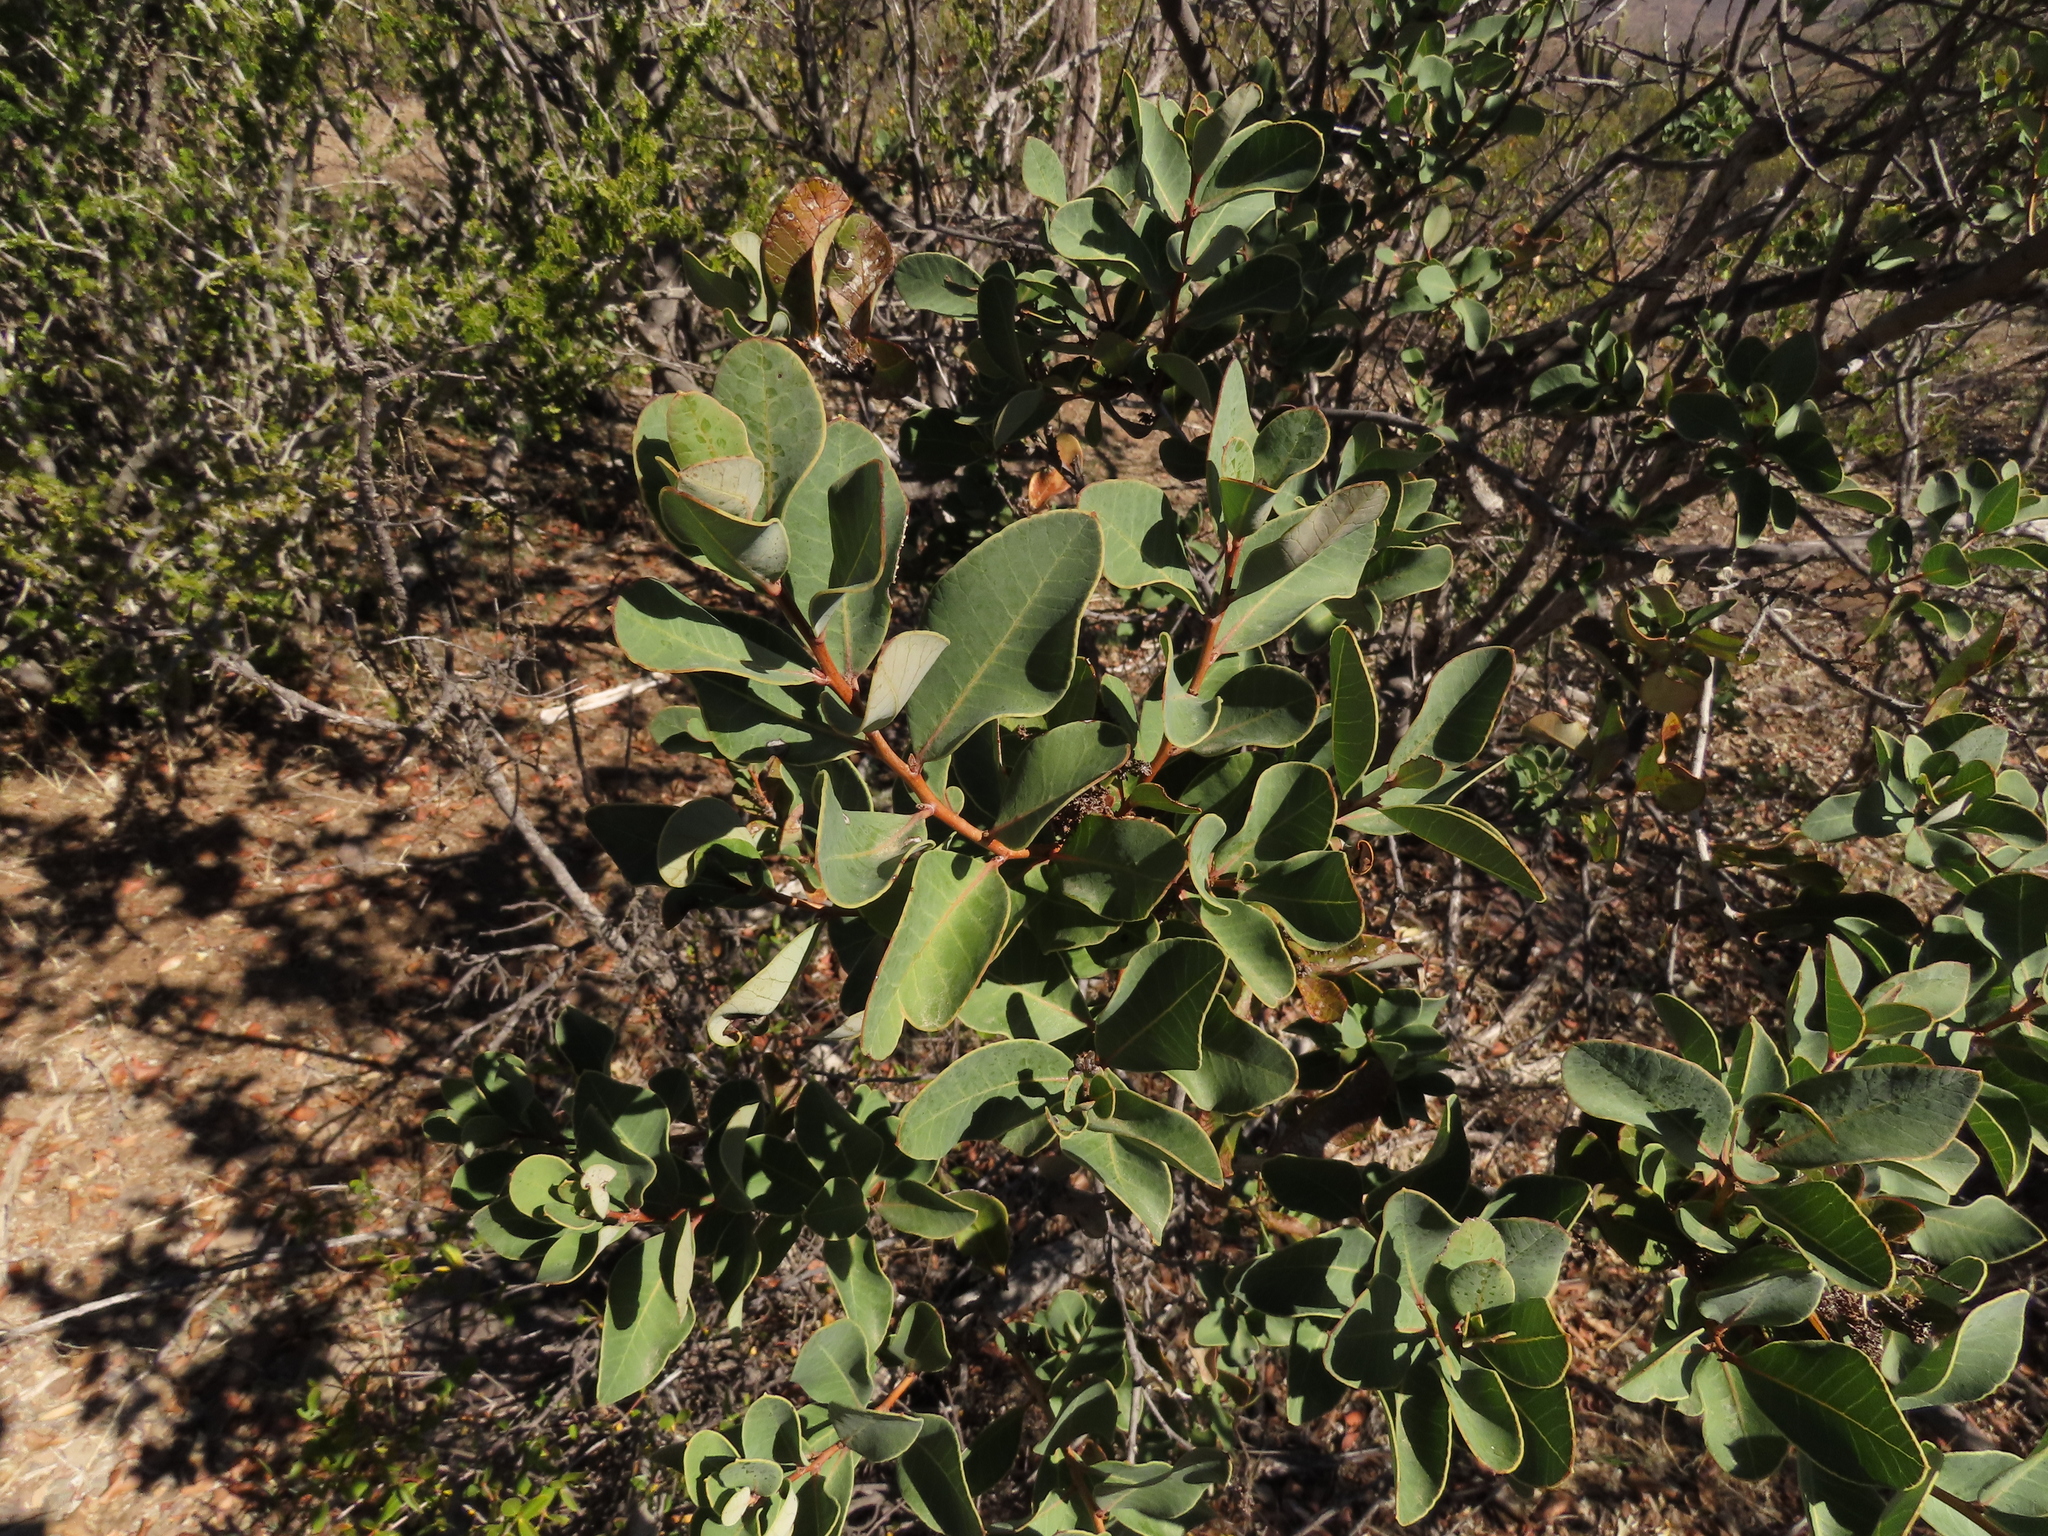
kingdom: Plantae
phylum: Tracheophyta
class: Magnoliopsida
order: Sapindales
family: Anacardiaceae
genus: Lithraea
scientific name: Lithraea caustica
